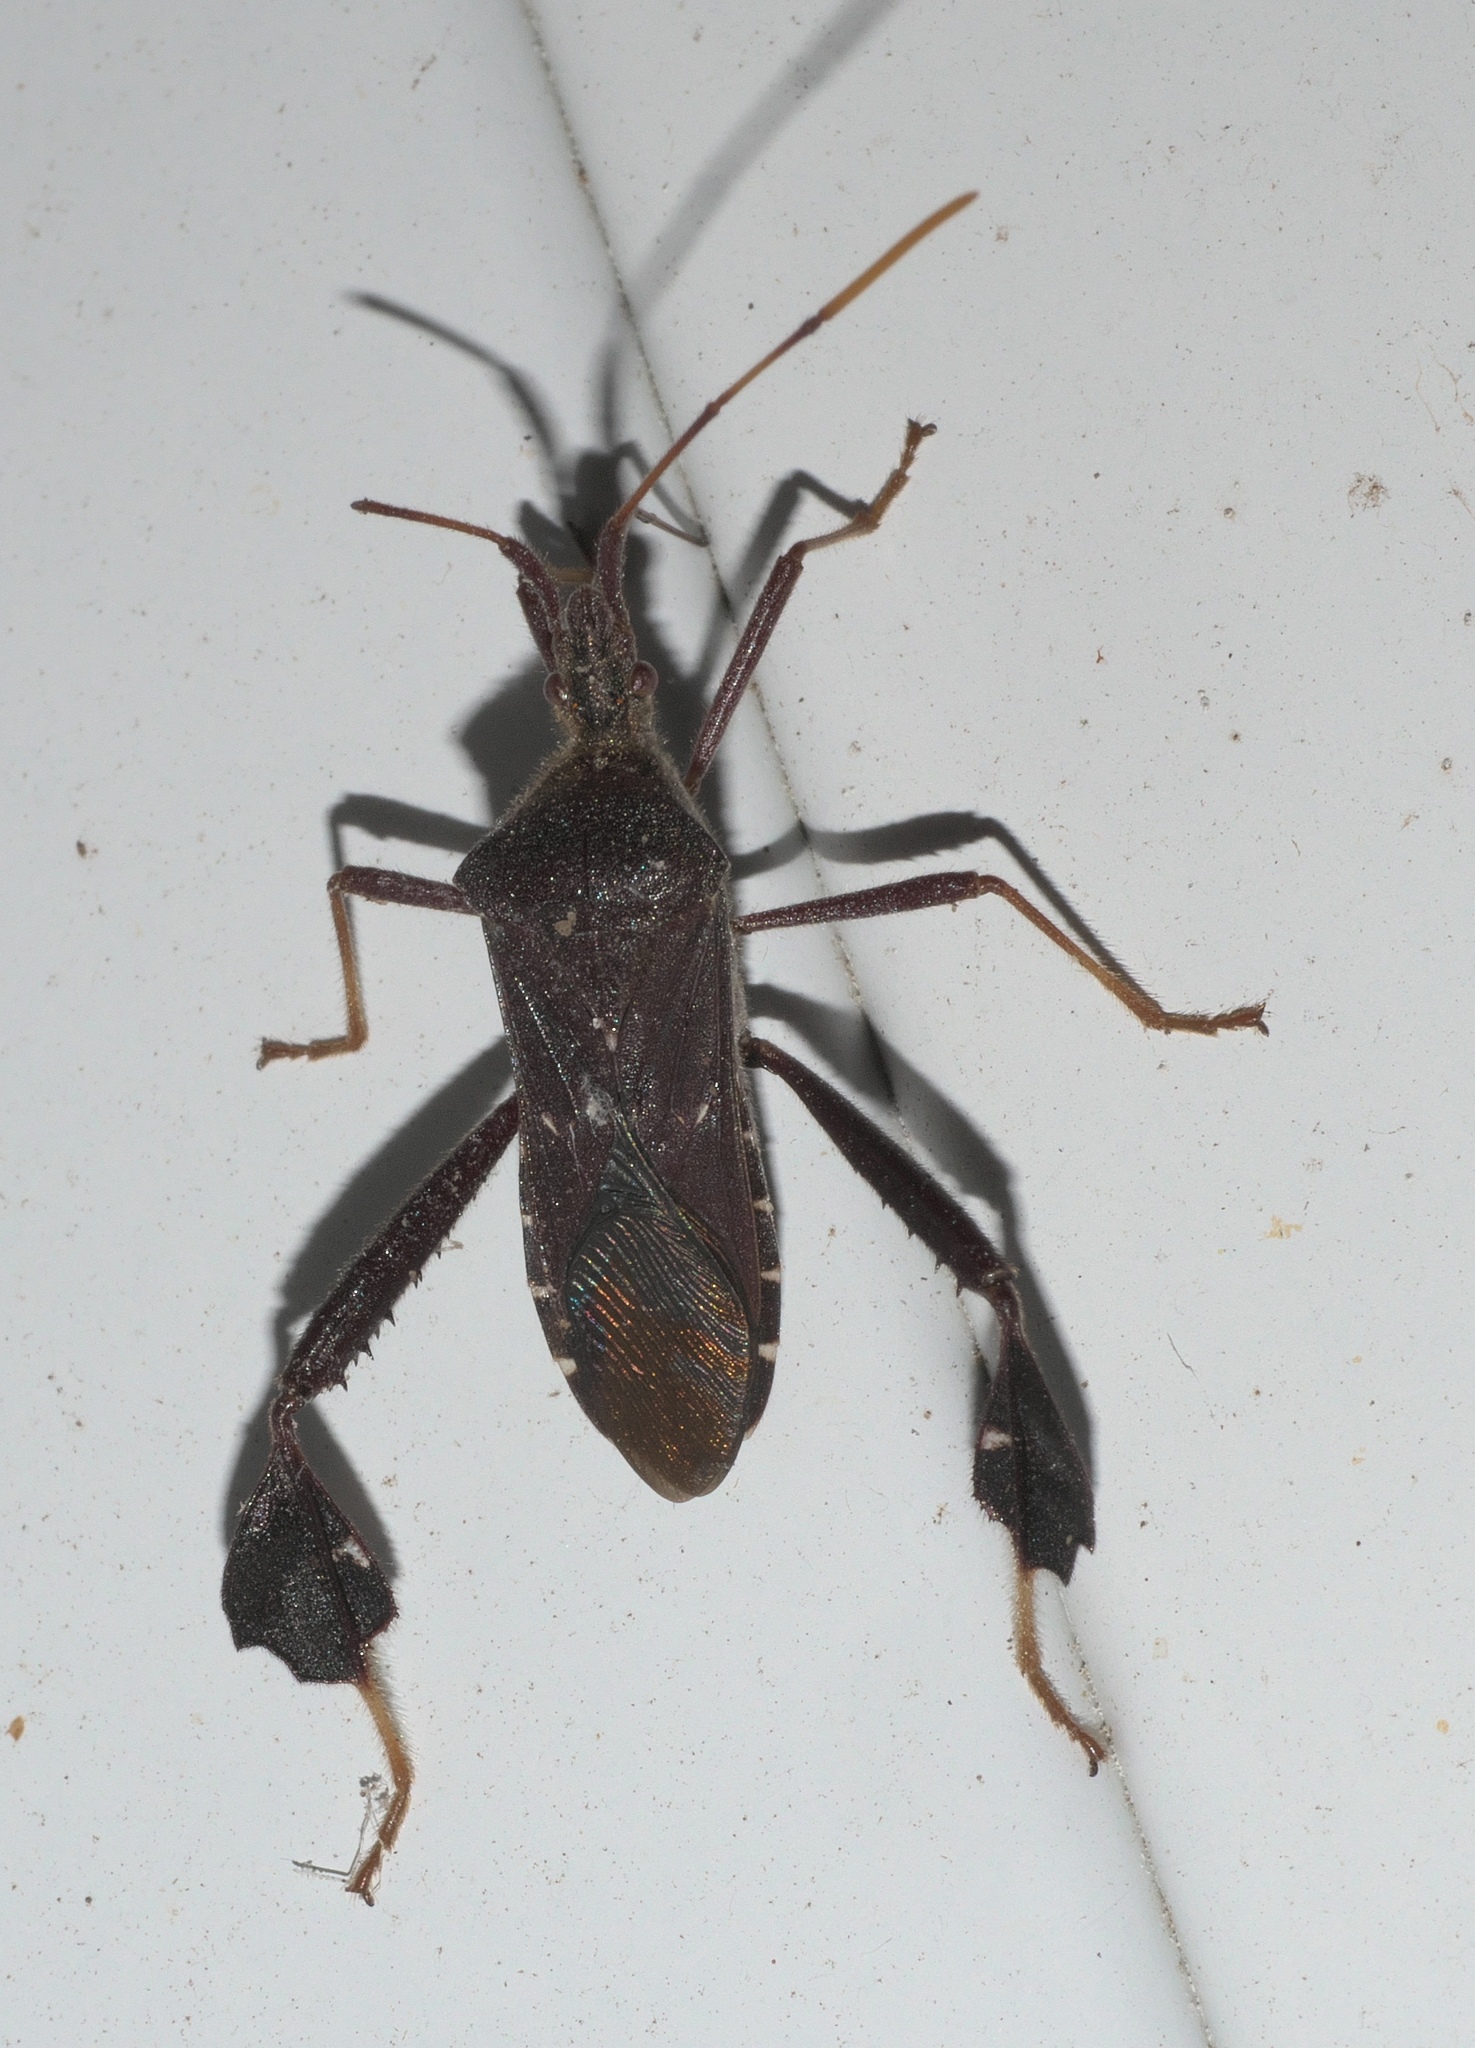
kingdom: Animalia
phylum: Arthropoda
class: Insecta
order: Hemiptera
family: Coreidae
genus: Leptoglossus
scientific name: Leptoglossus oppositus
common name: Northern leaf-footed bug
